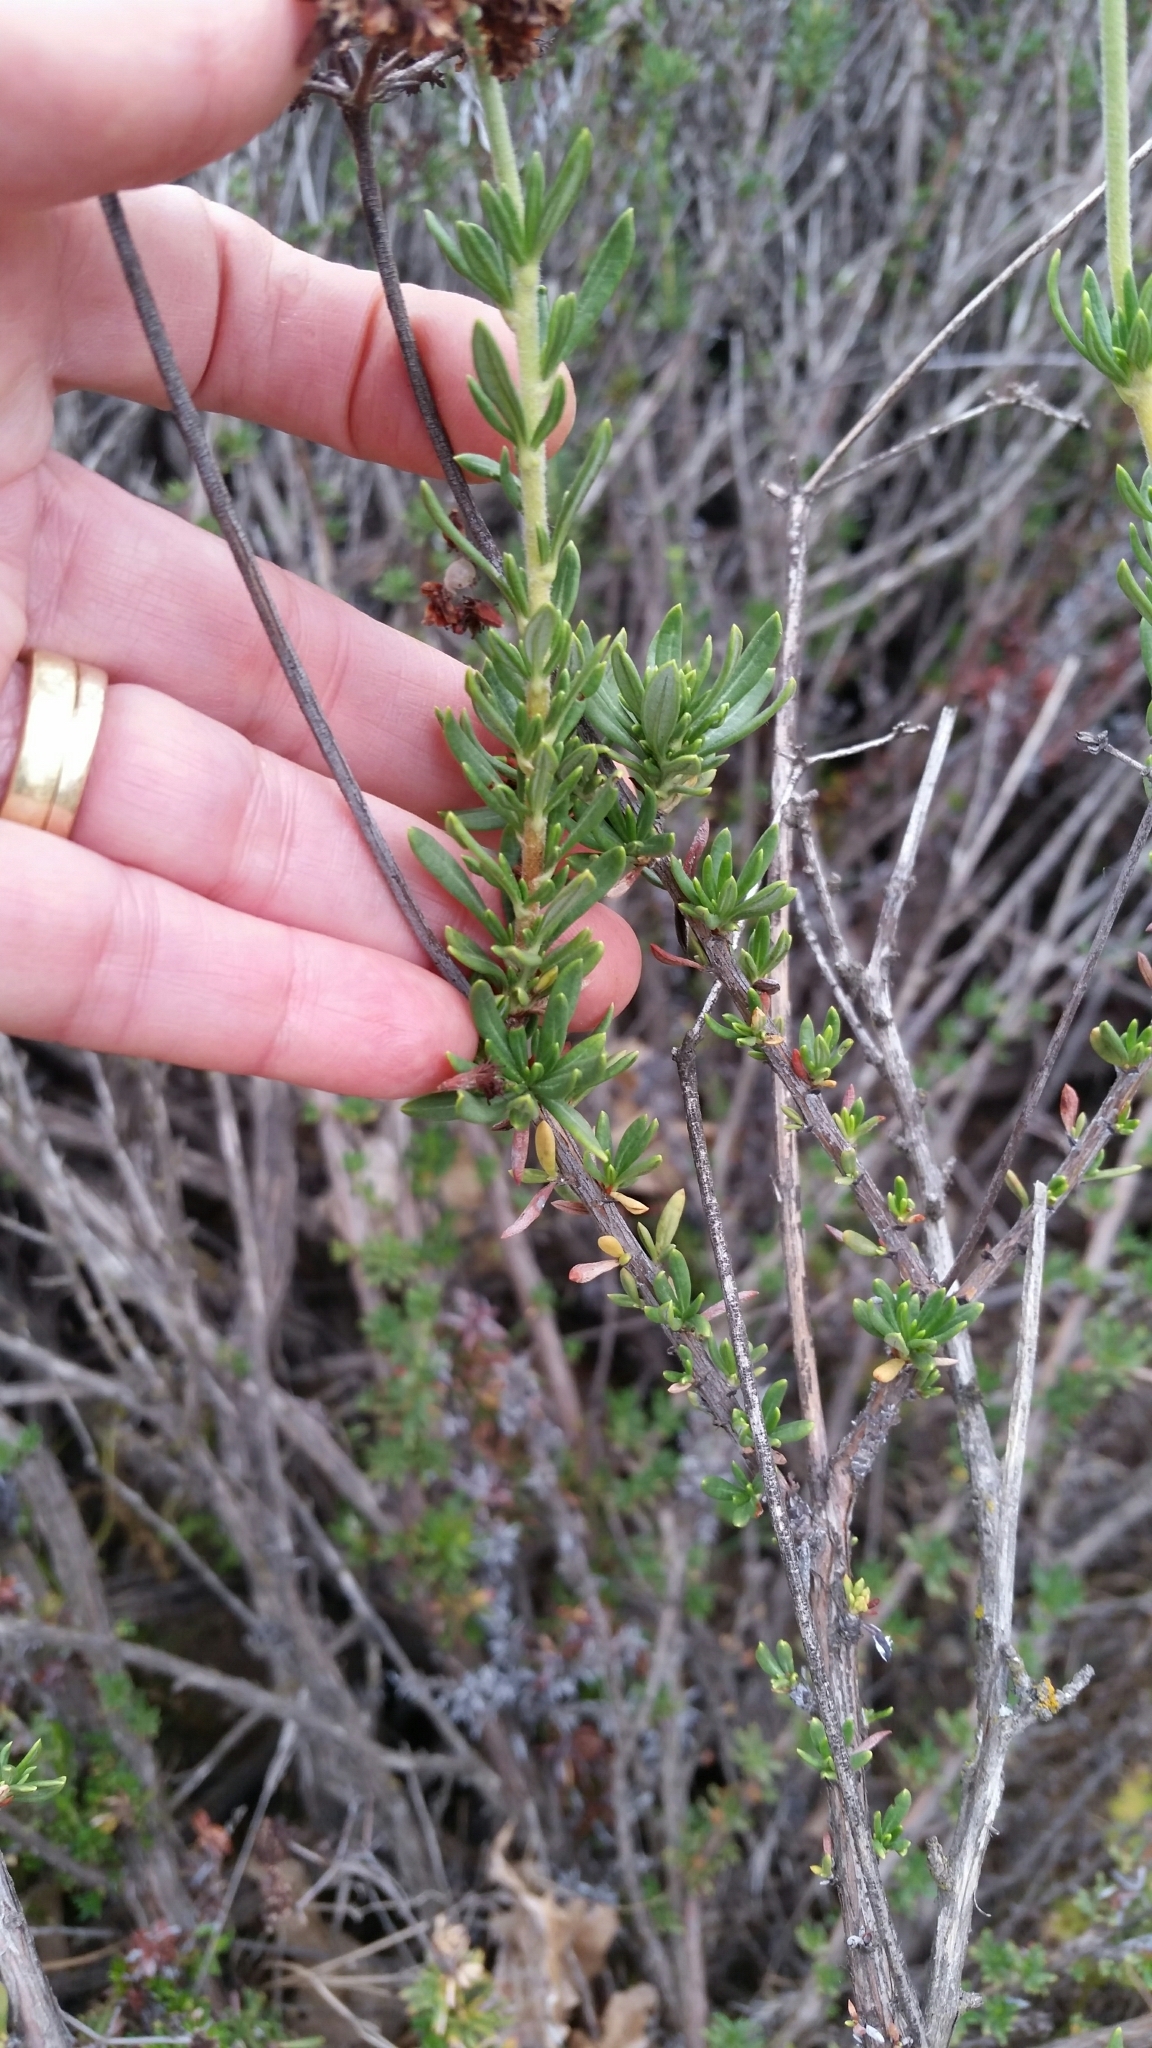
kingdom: Plantae
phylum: Tracheophyta
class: Magnoliopsida
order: Caryophyllales
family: Polygonaceae
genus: Eriogonum
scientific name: Eriogonum fasciculatum
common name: California wild buckwheat
